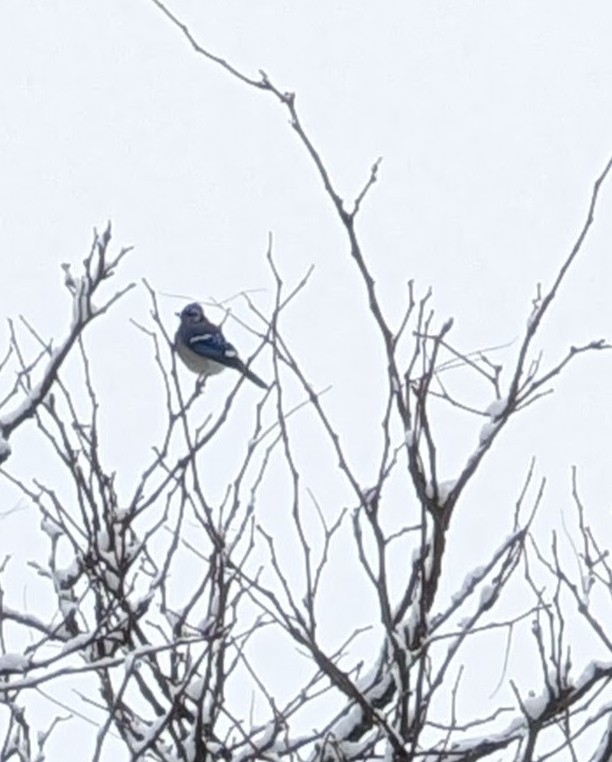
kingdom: Animalia
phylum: Chordata
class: Aves
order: Passeriformes
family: Corvidae
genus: Cyanocitta
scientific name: Cyanocitta cristata
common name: Blue jay
